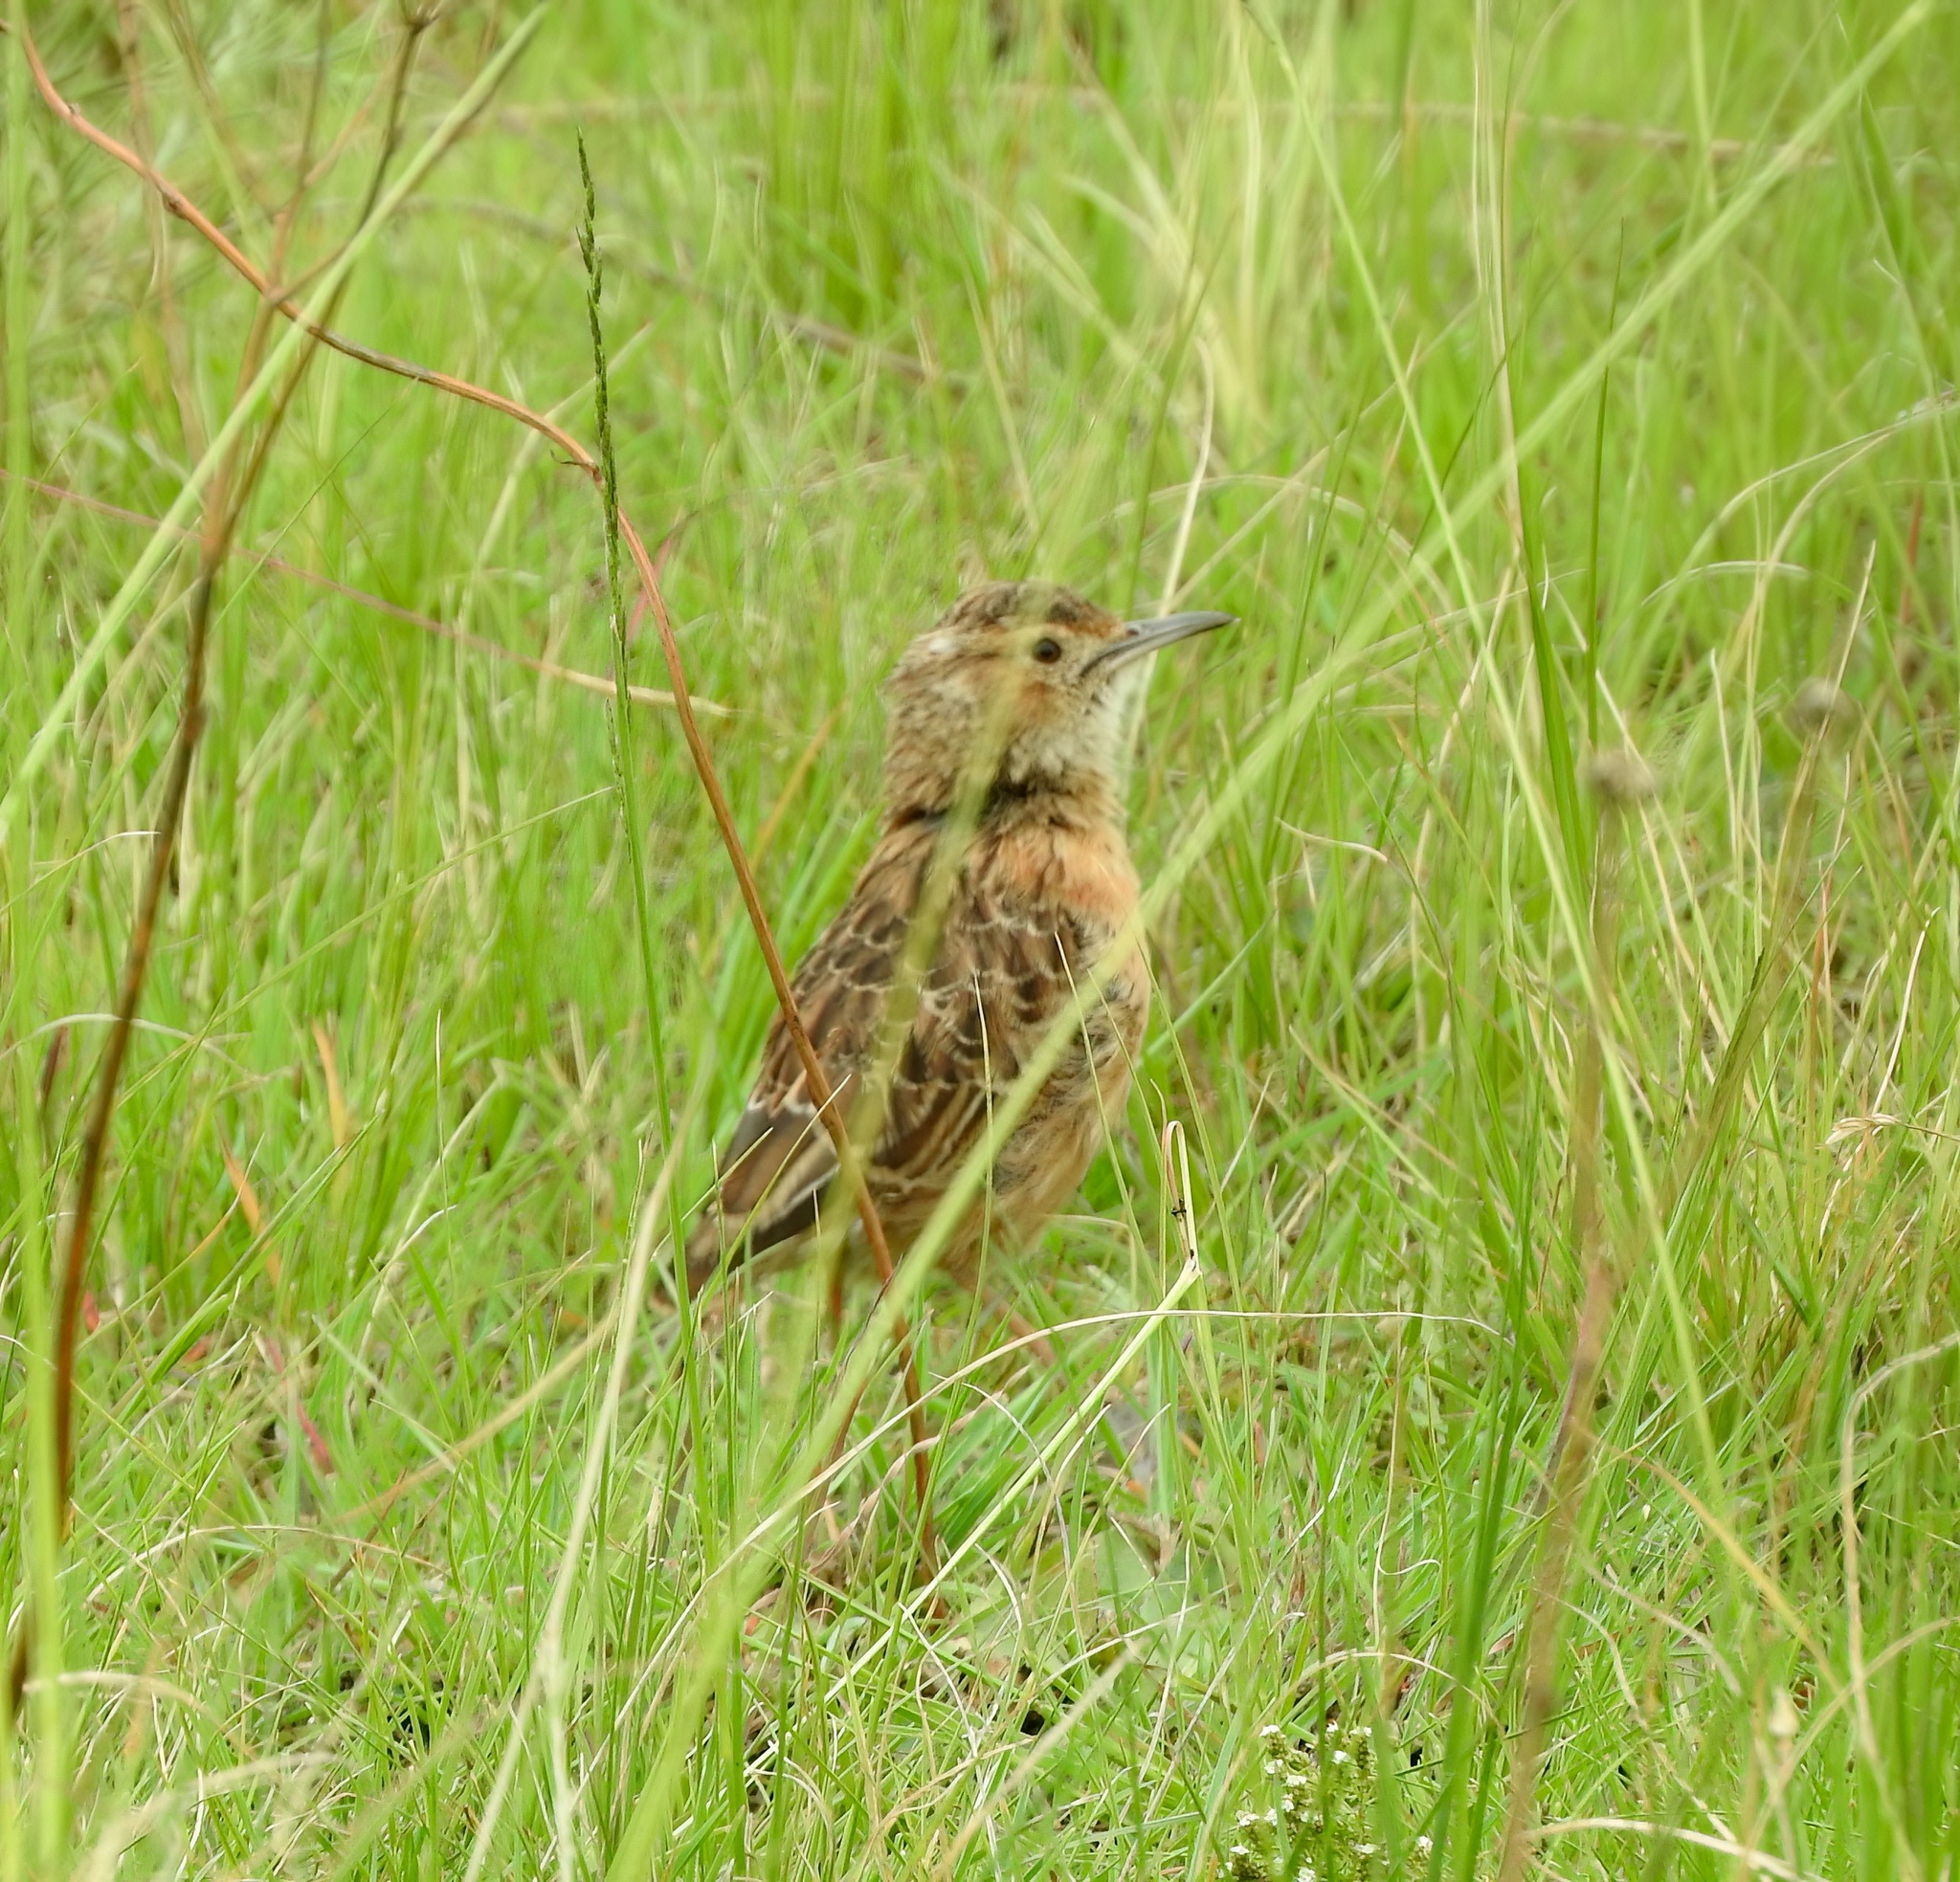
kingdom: Animalia
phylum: Chordata
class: Aves
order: Passeriformes
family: Alaudidae
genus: Chersomanes
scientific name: Chersomanes albofasciata
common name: Spike-heeled lark
